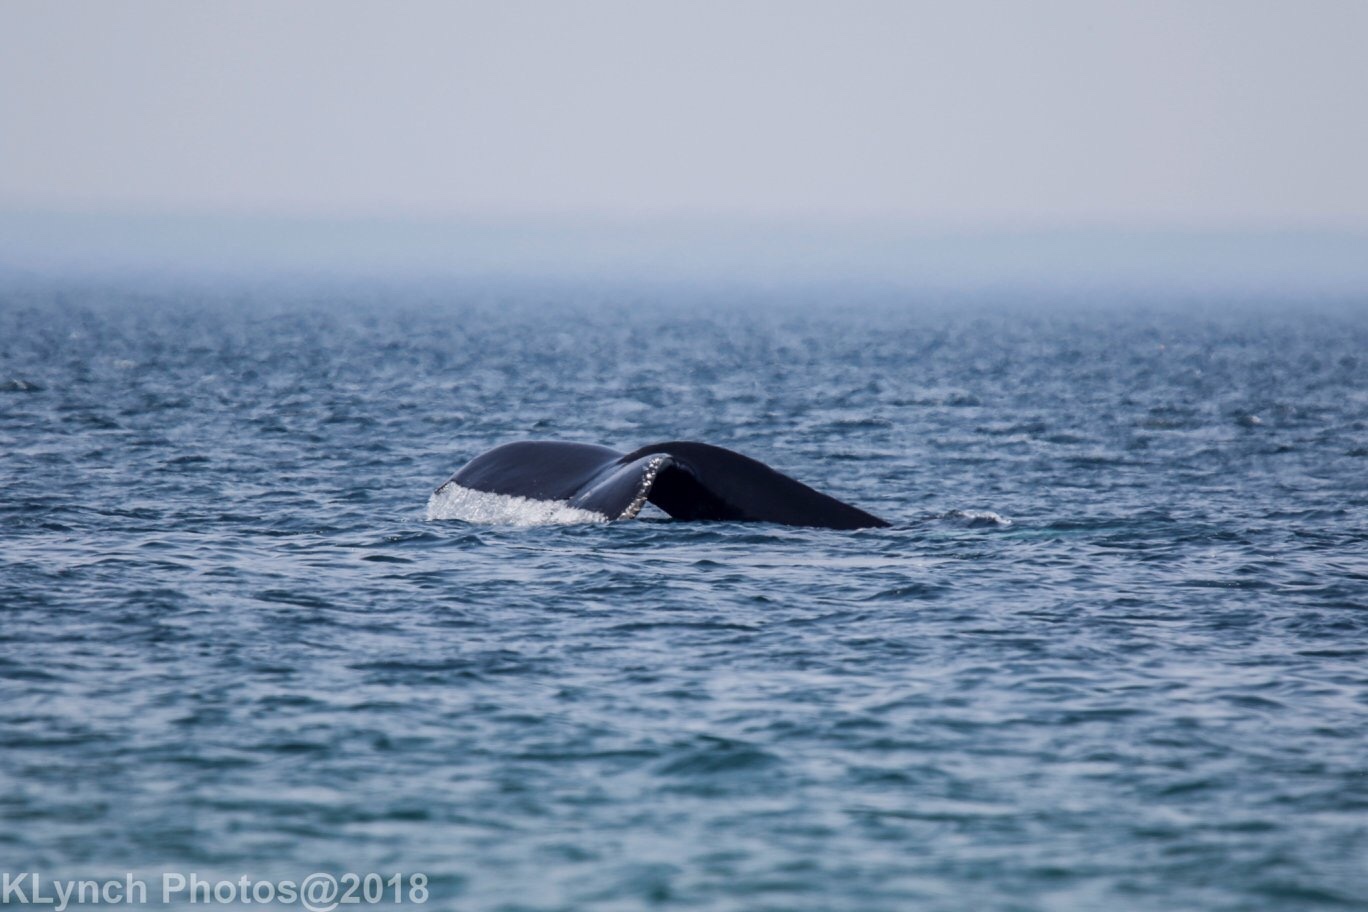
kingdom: Animalia
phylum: Chordata
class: Mammalia
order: Cetacea
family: Balaenopteridae
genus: Megaptera
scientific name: Megaptera novaeangliae
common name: Humpback whale
